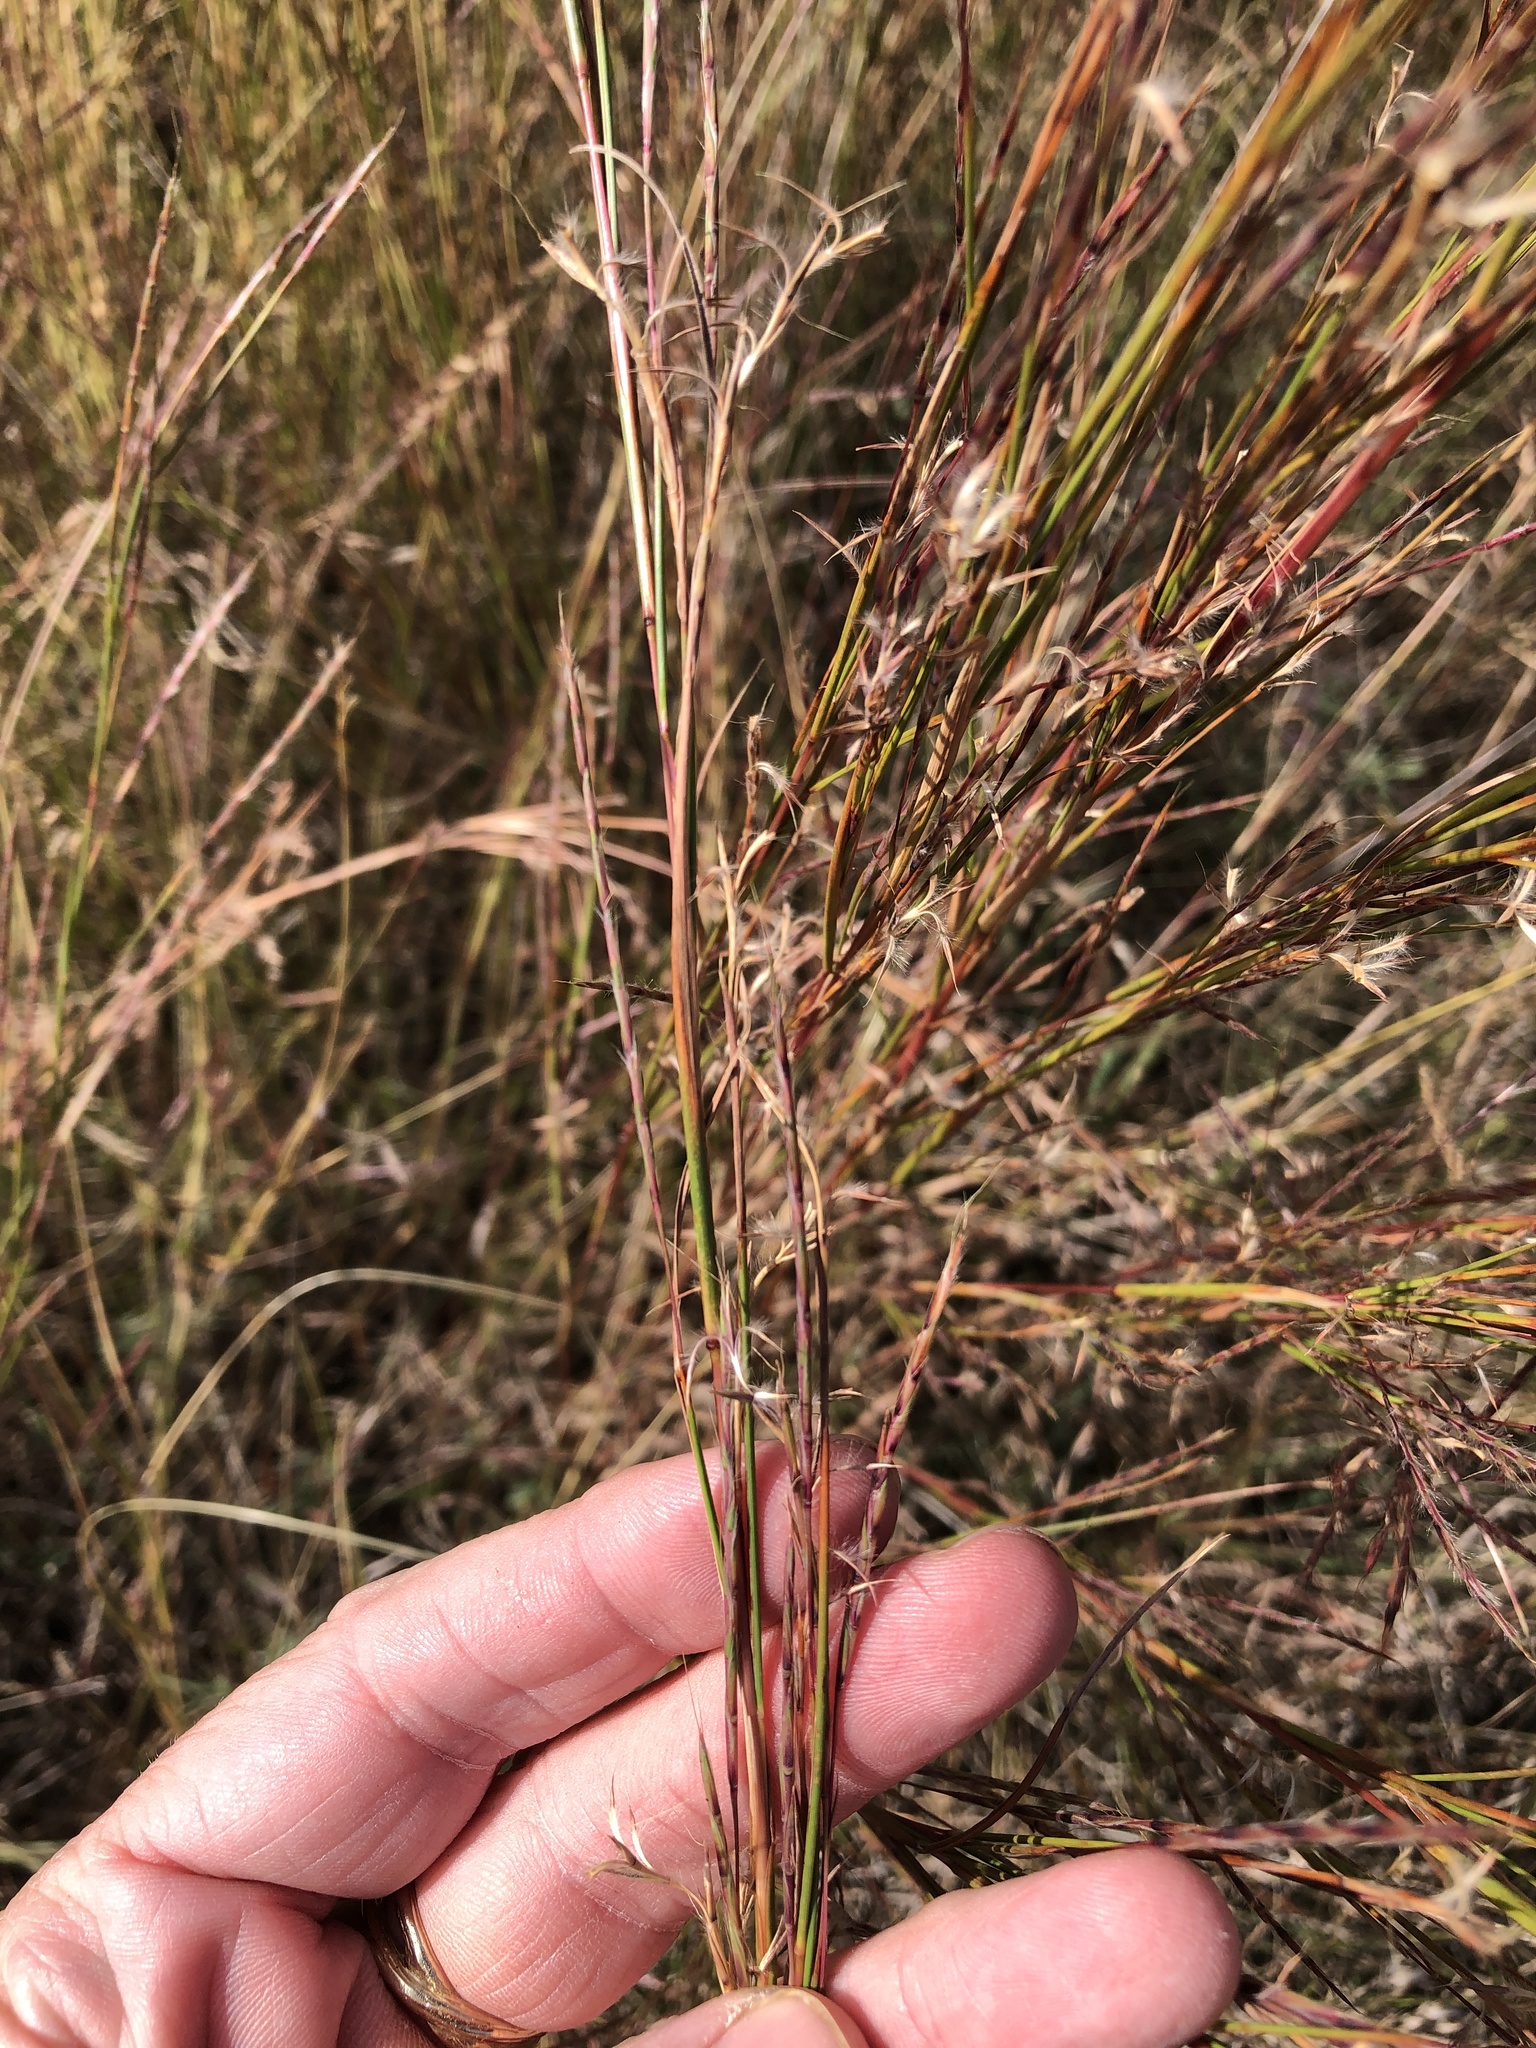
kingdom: Plantae
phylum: Tracheophyta
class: Liliopsida
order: Poales
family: Poaceae
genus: Schizachyrium
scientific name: Schizachyrium scoparium
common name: Little bluestem
